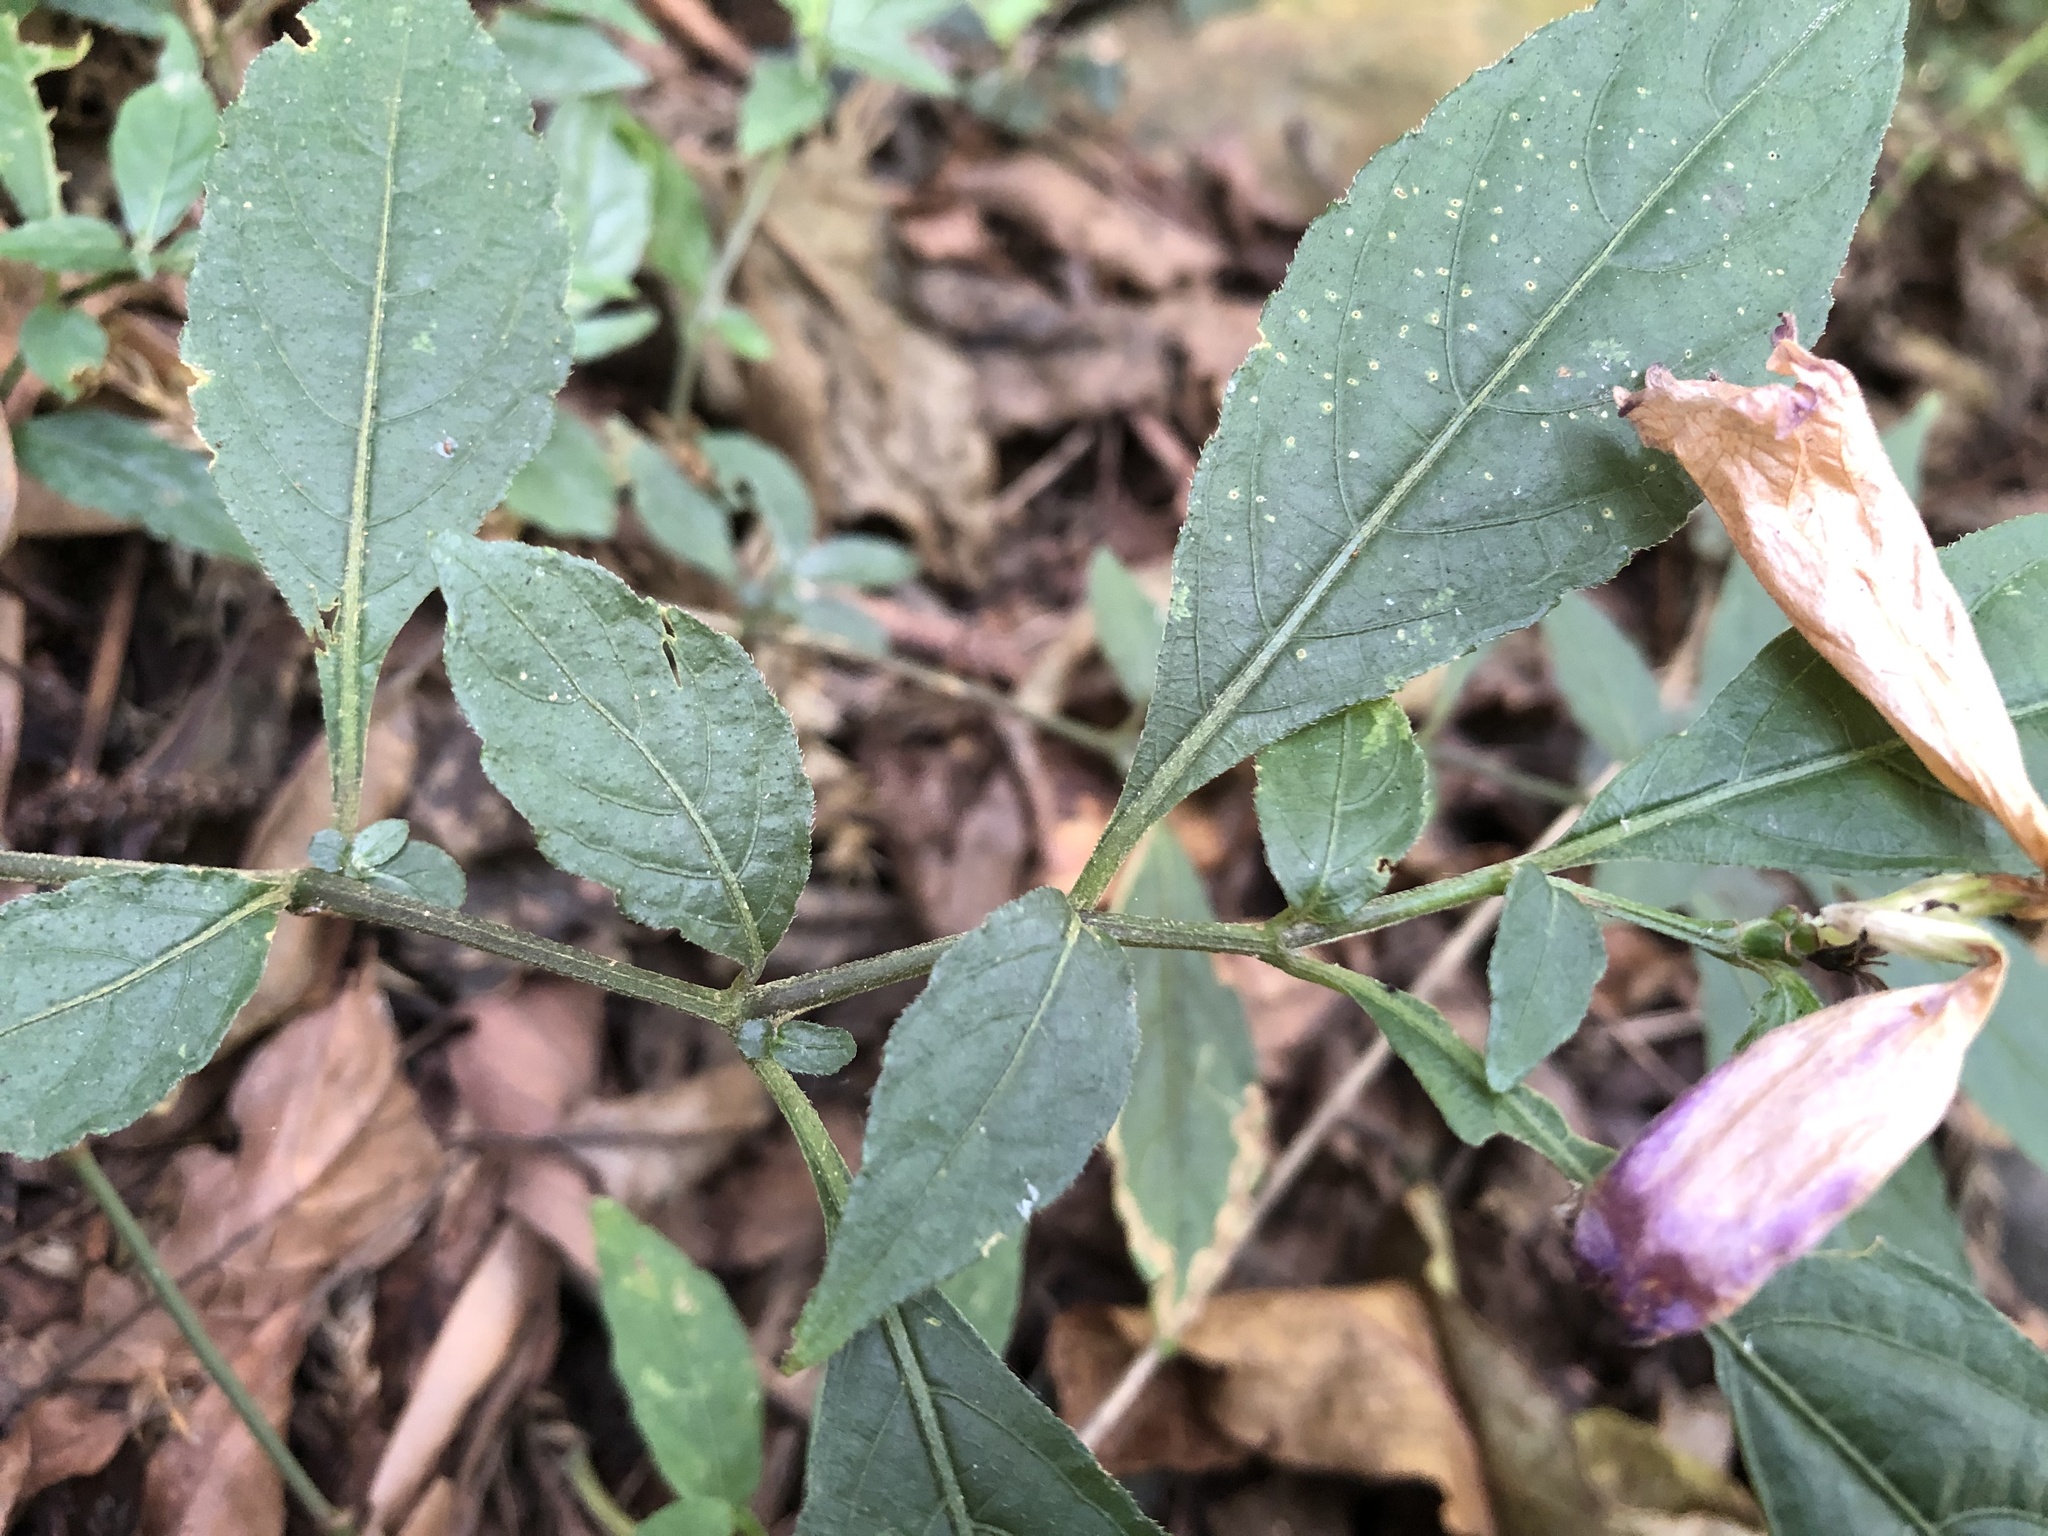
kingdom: Plantae
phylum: Tracheophyta
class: Magnoliopsida
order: Lamiales
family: Acanthaceae
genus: Strobilanthes
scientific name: Strobilanthes flexicaulis
